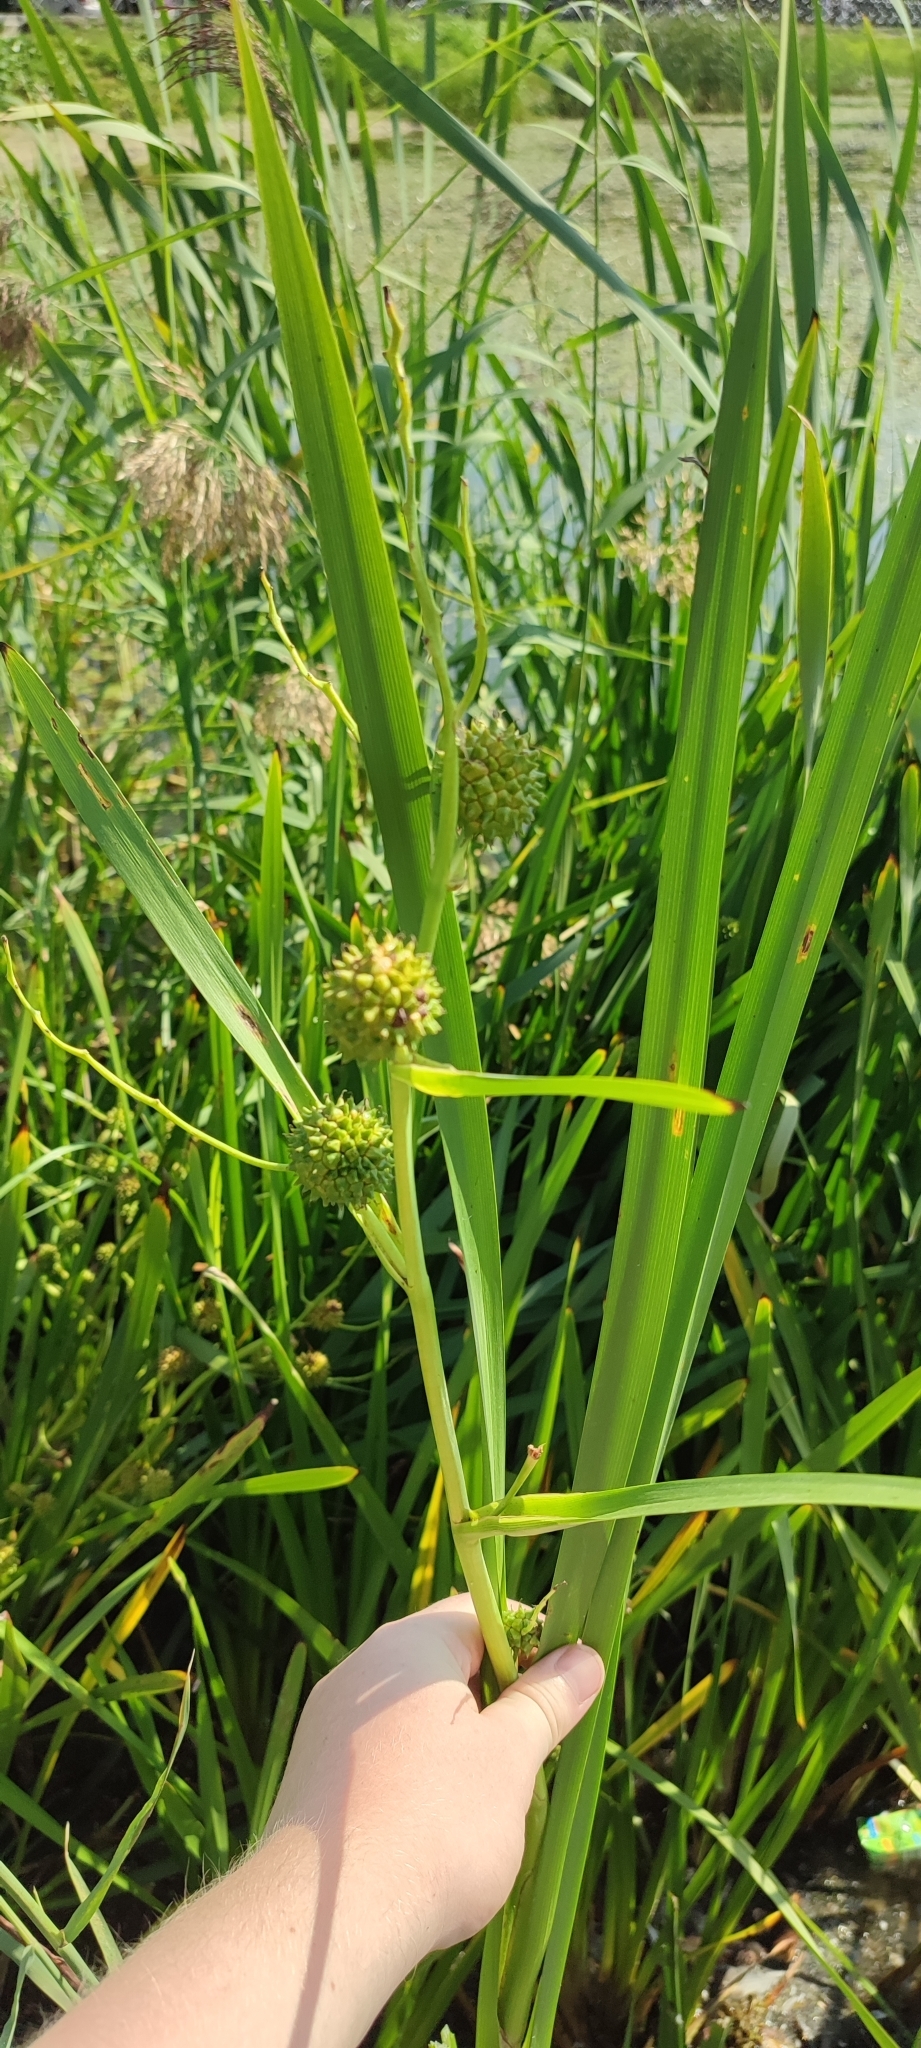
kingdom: Plantae
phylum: Tracheophyta
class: Liliopsida
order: Poales
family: Typhaceae
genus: Sparganium
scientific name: Sparganium erectum
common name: Branched bur-reed
